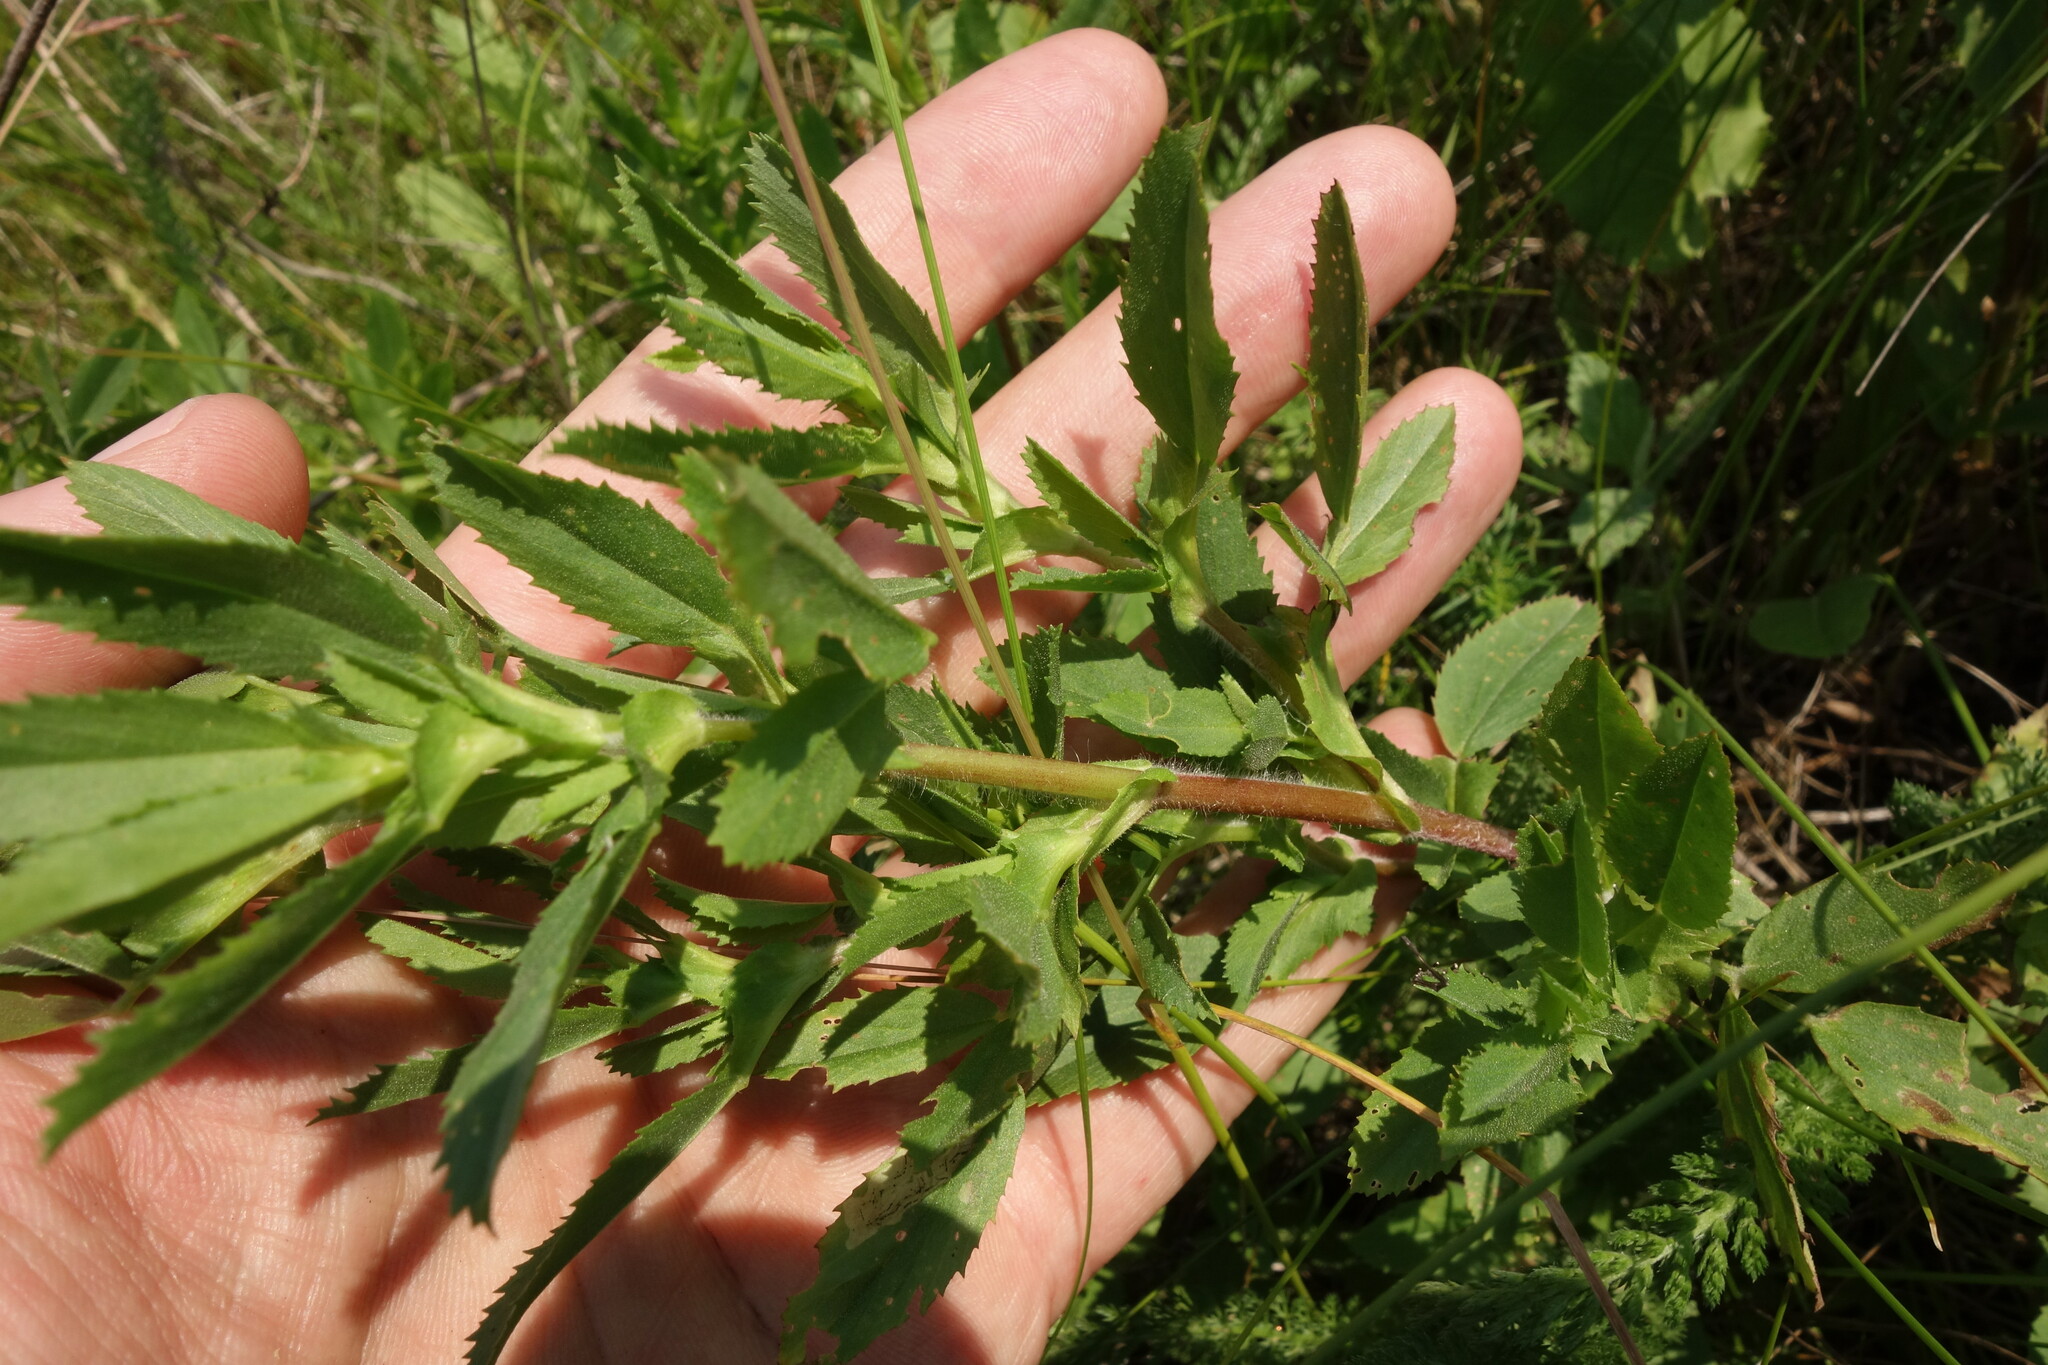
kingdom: Plantae
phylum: Tracheophyta
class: Magnoliopsida
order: Fabales
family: Fabaceae
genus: Ononis
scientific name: Ononis arvensis
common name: Field restharrow
